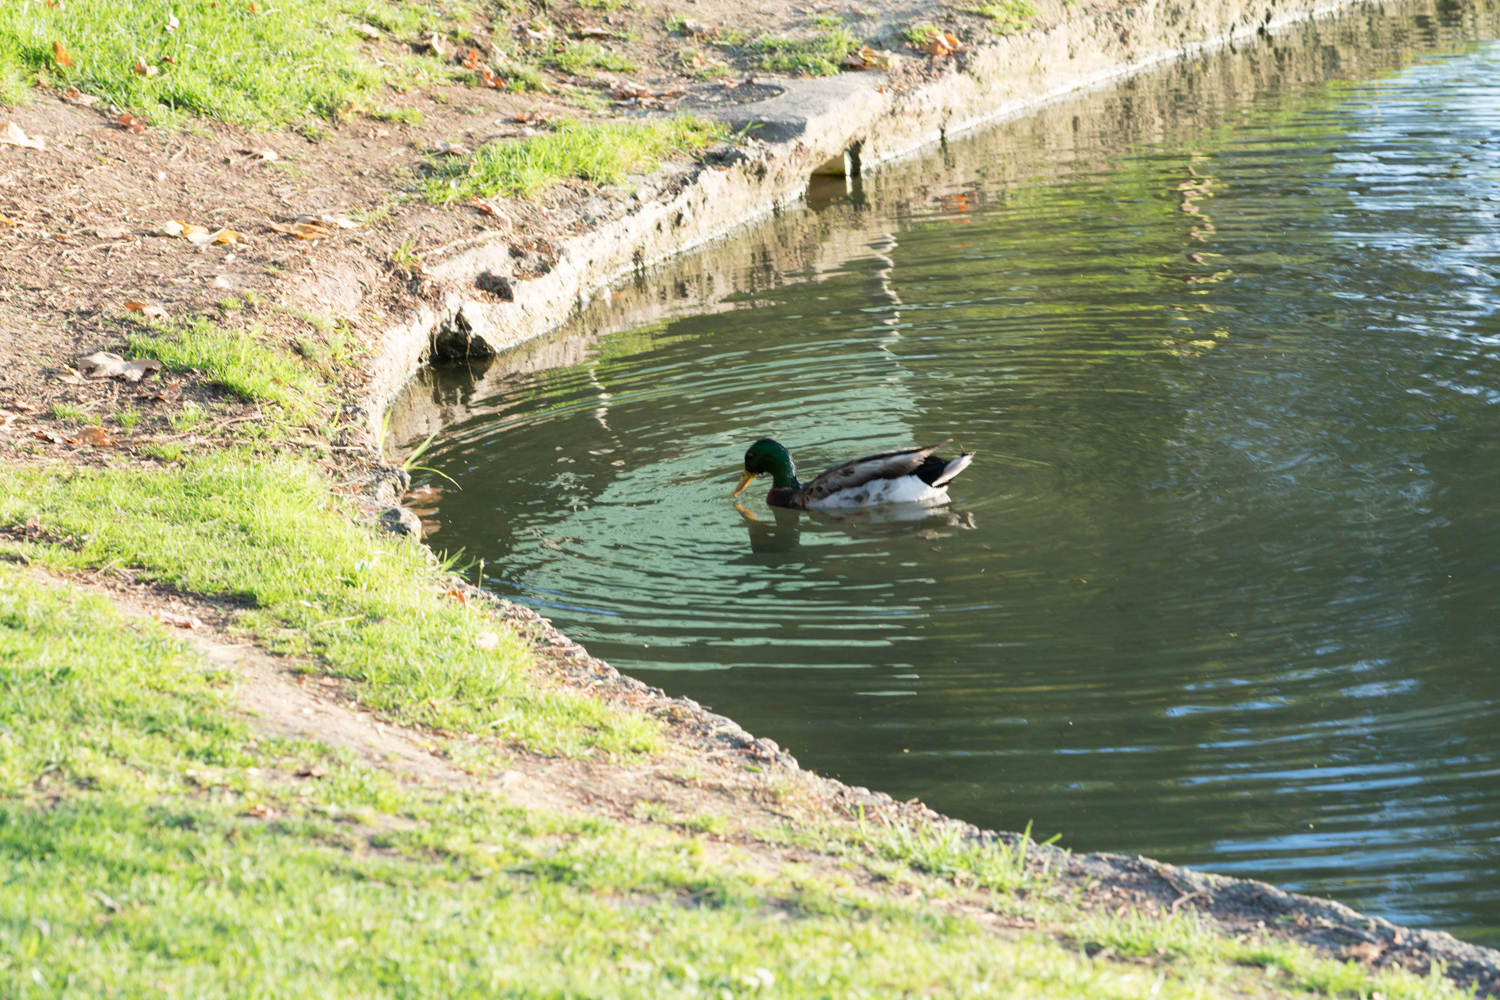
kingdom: Animalia
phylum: Chordata
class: Aves
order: Anseriformes
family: Anatidae
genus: Anas
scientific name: Anas platyrhynchos
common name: Mallard
